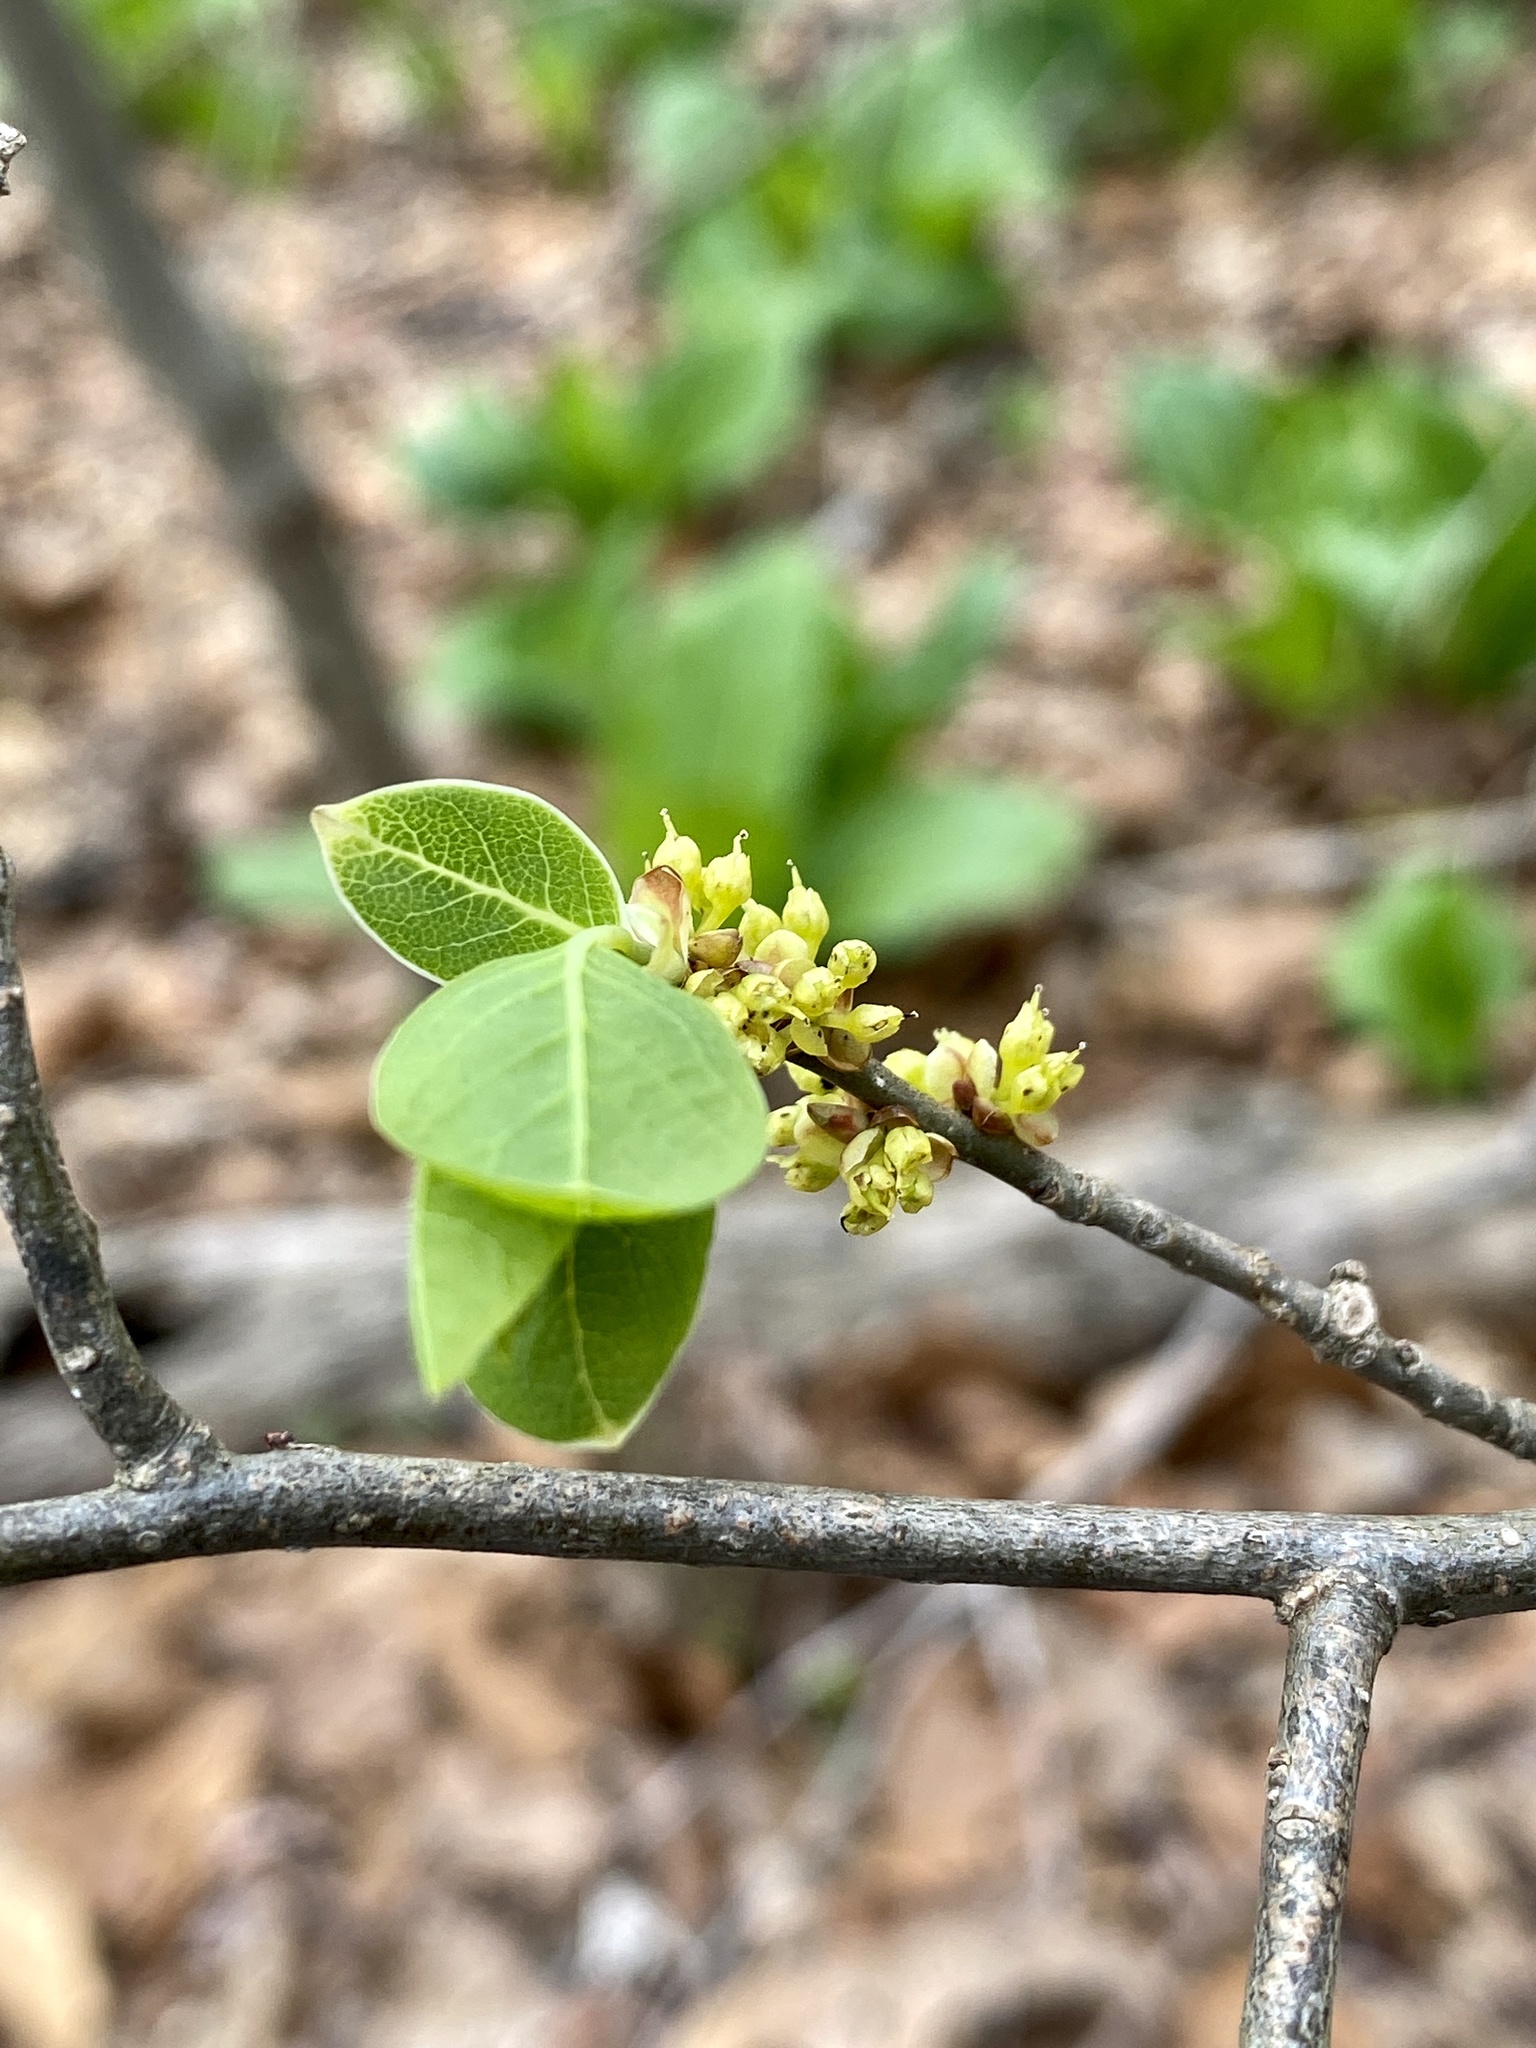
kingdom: Plantae
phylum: Tracheophyta
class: Magnoliopsida
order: Laurales
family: Lauraceae
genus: Lindera
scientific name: Lindera benzoin
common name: Spicebush
